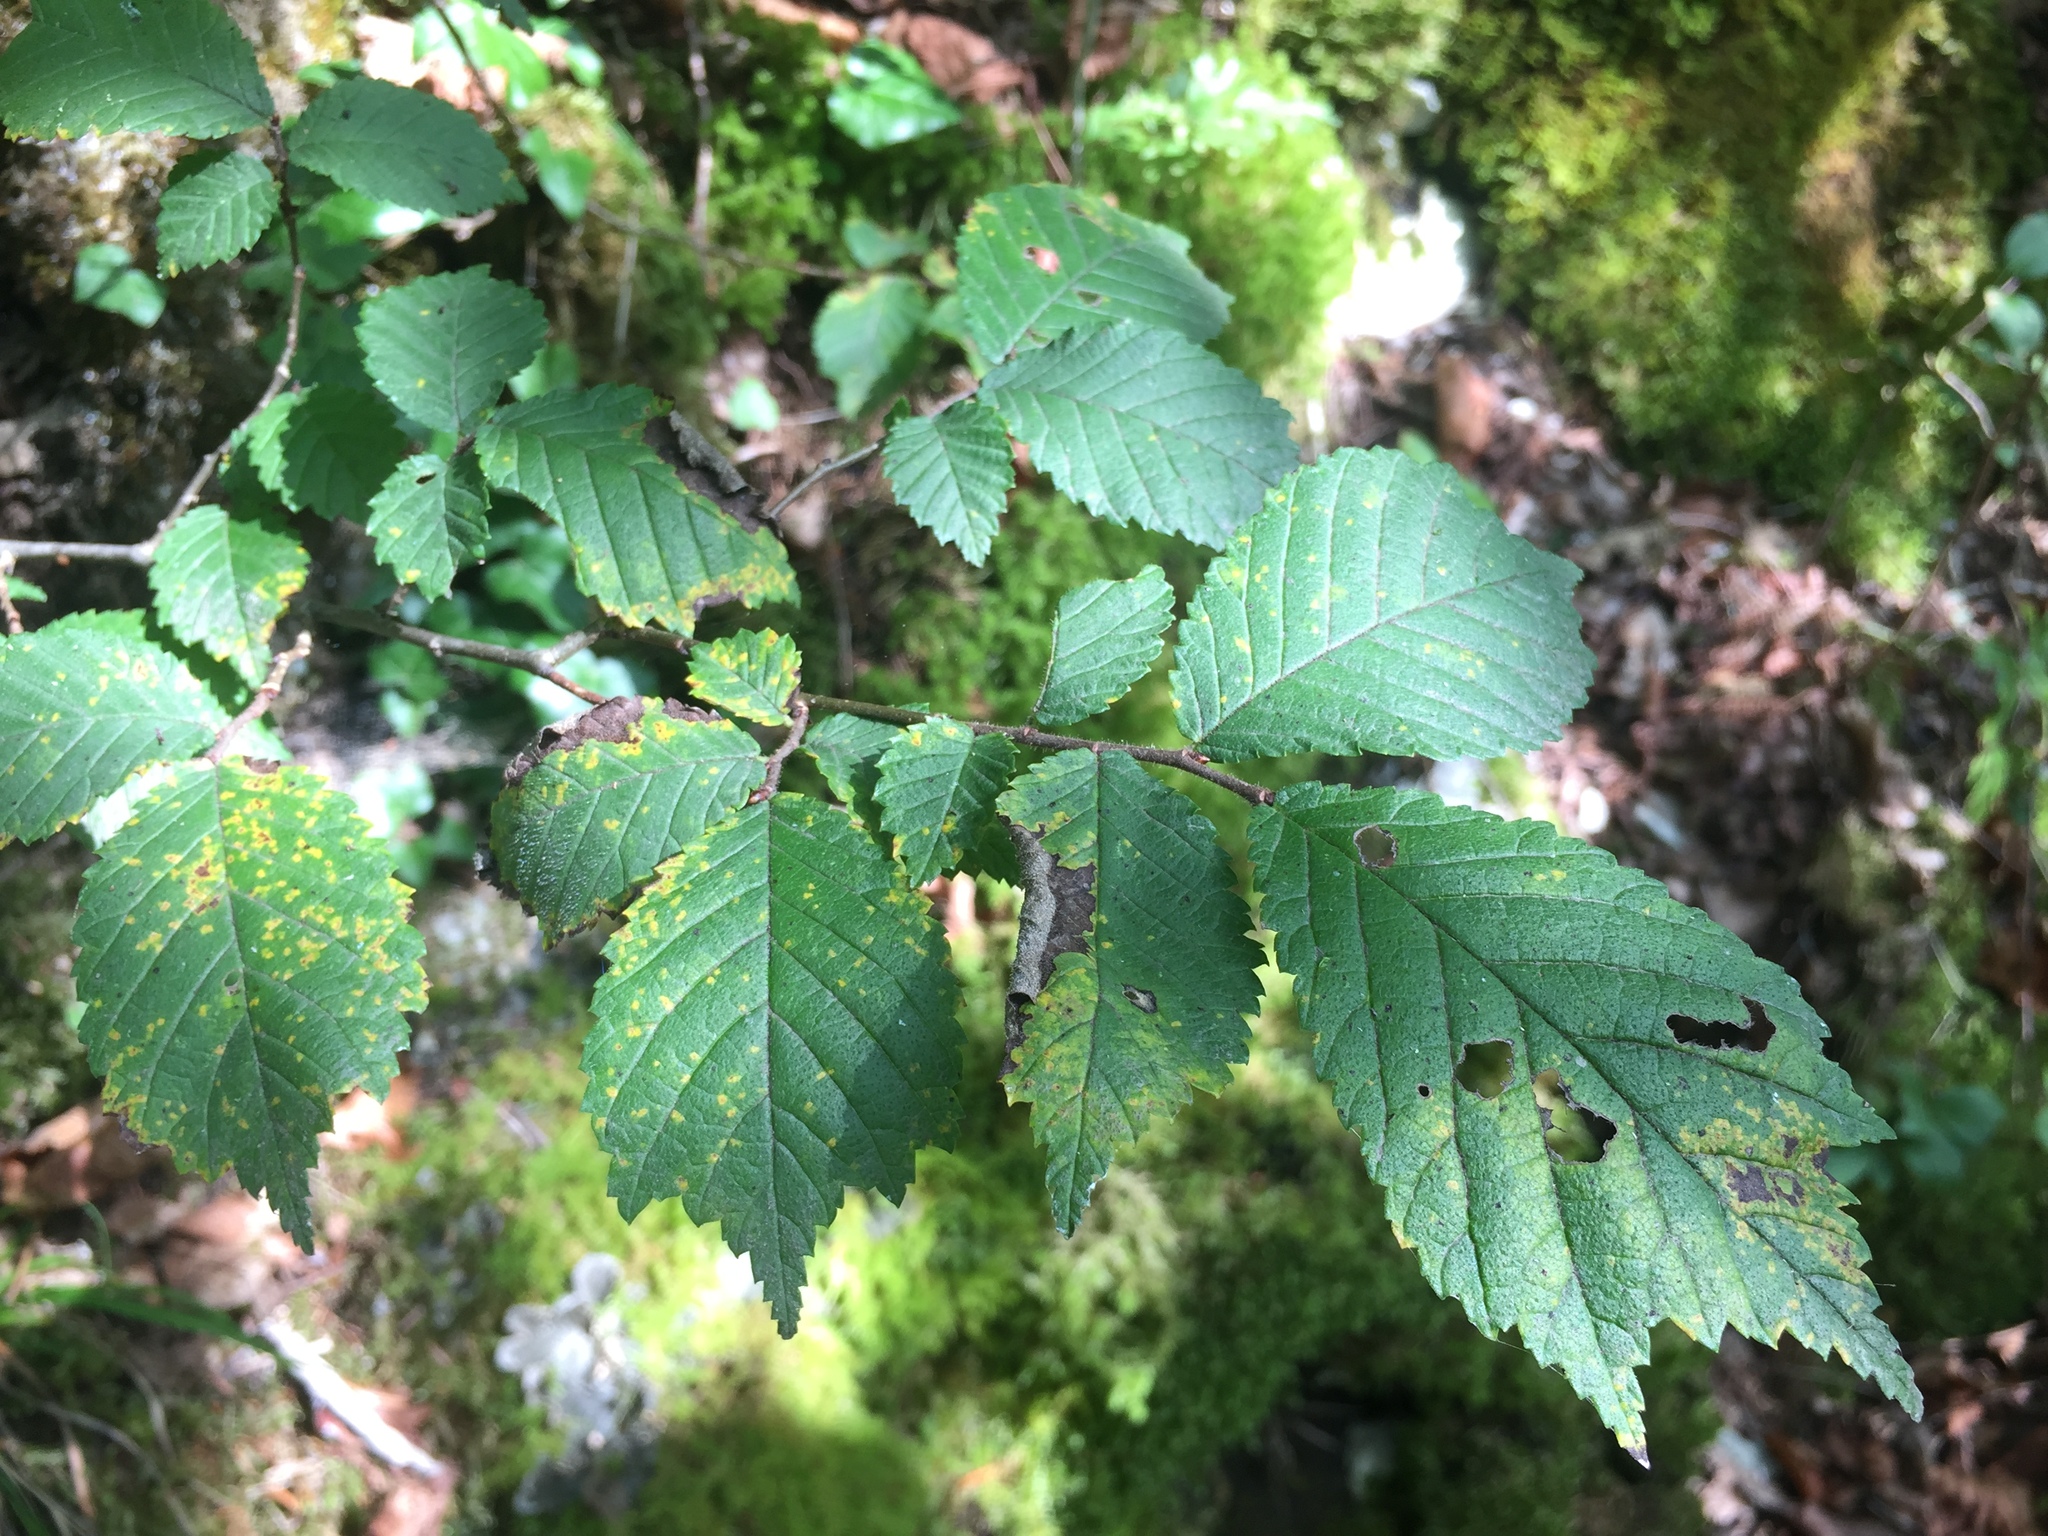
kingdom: Plantae
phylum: Tracheophyta
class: Magnoliopsida
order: Rosales
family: Ulmaceae
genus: Ulmus
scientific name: Ulmus glabra
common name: Wych elm
